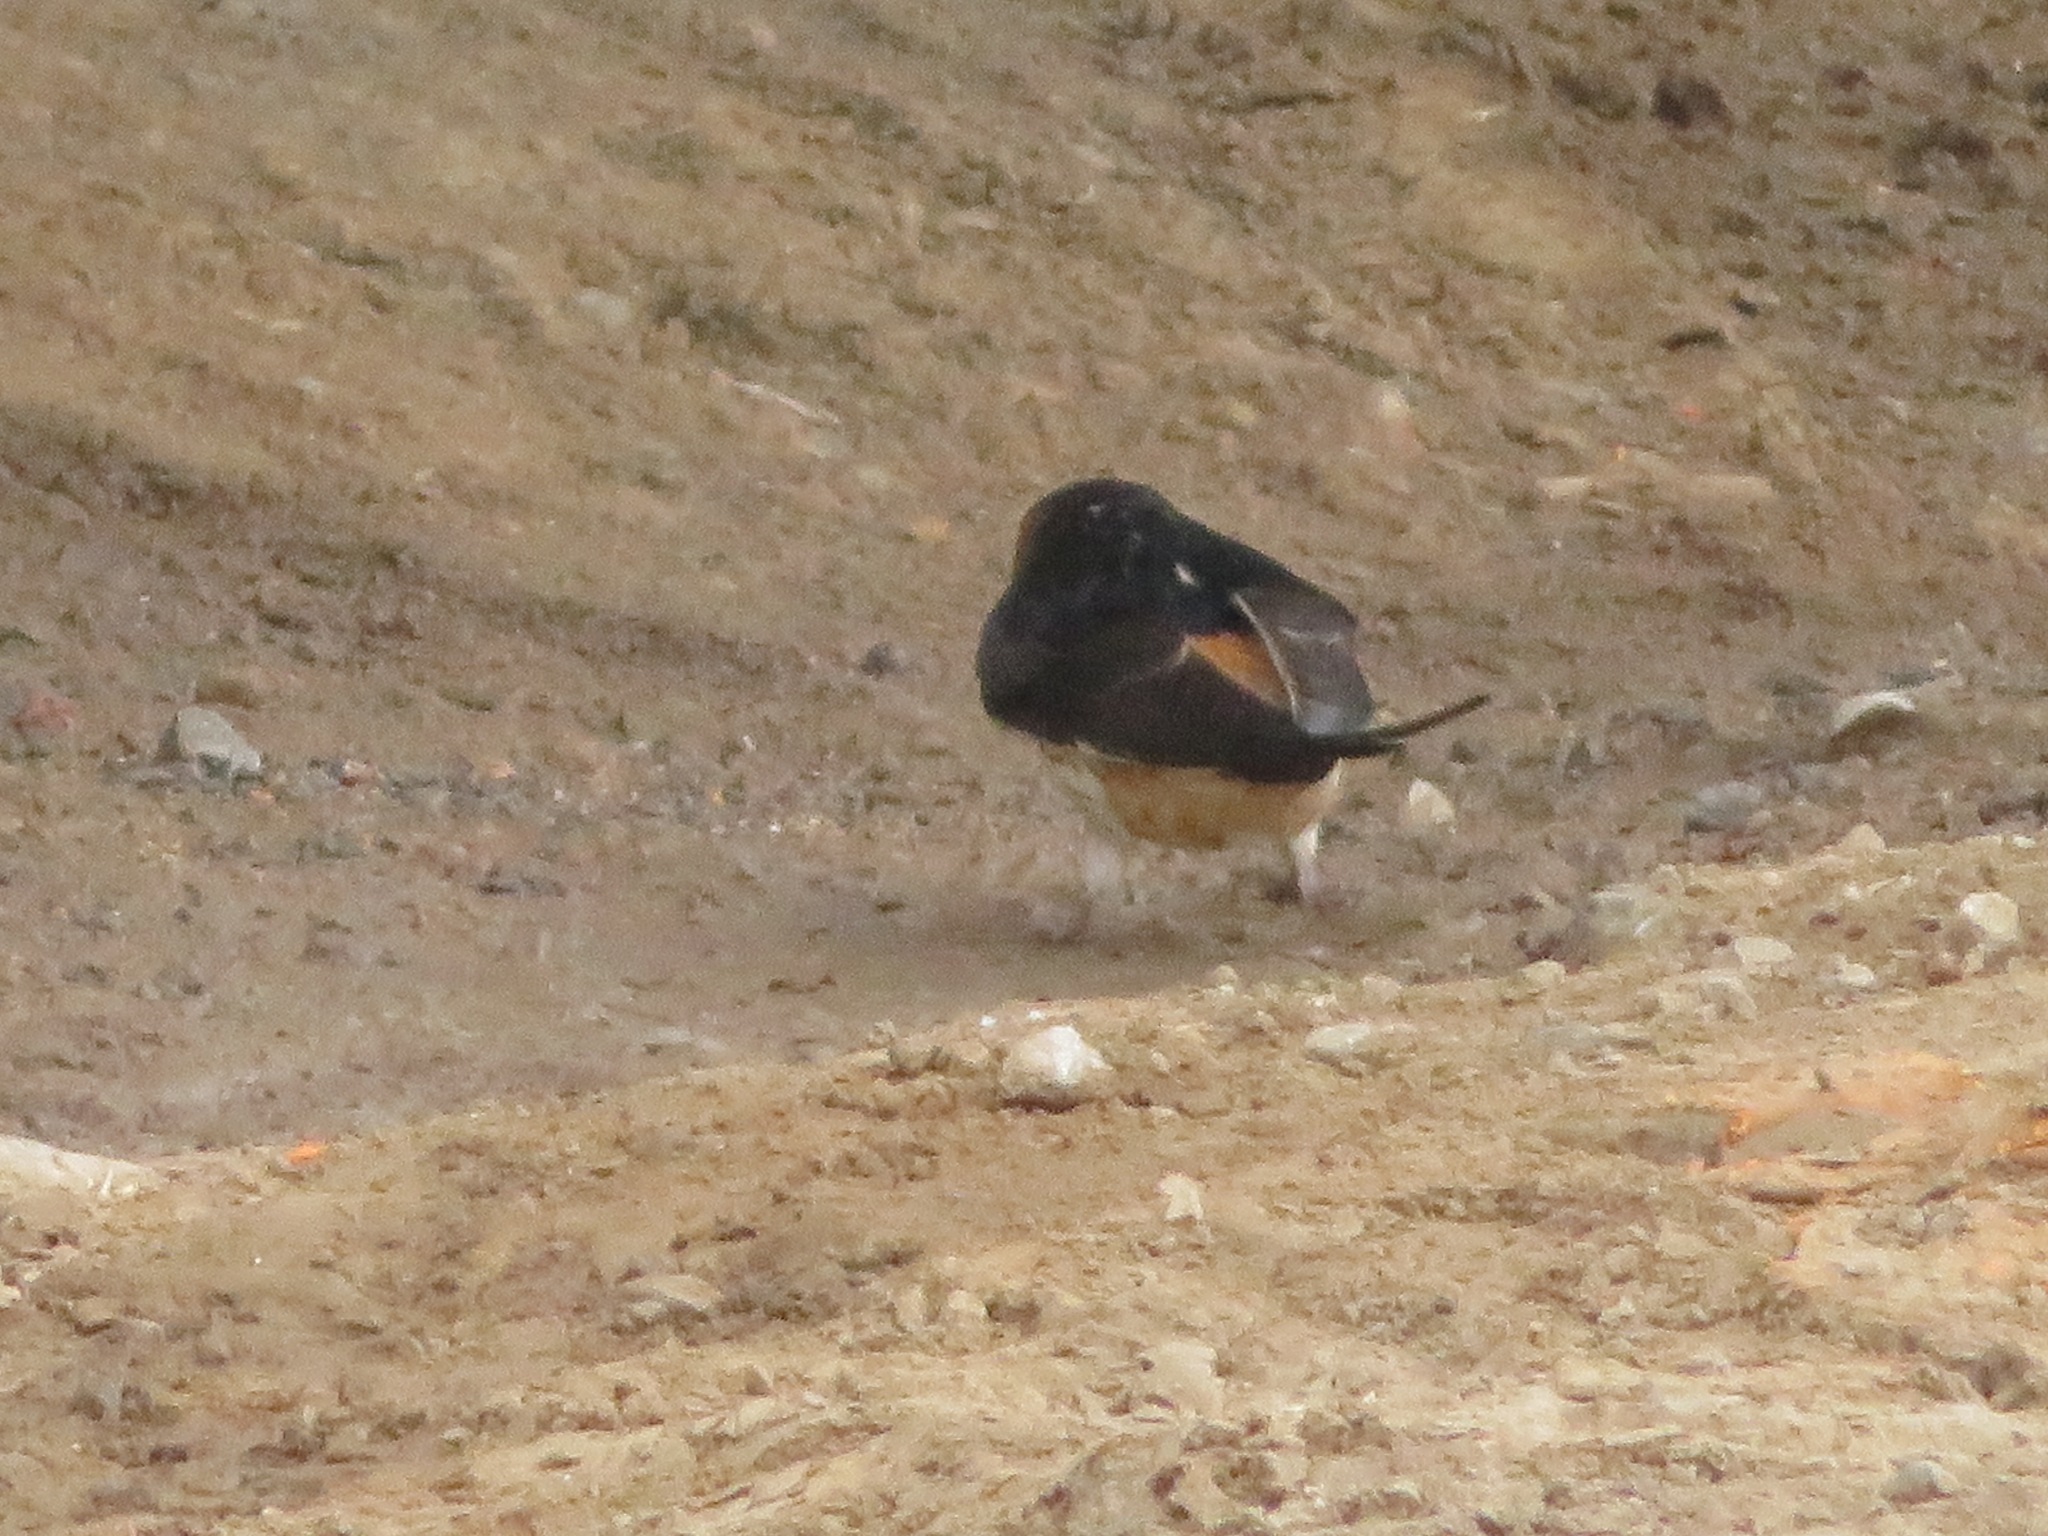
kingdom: Animalia
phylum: Chordata
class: Aves
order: Passeriformes
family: Hirundinidae
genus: Cecropis
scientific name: Cecropis daurica
